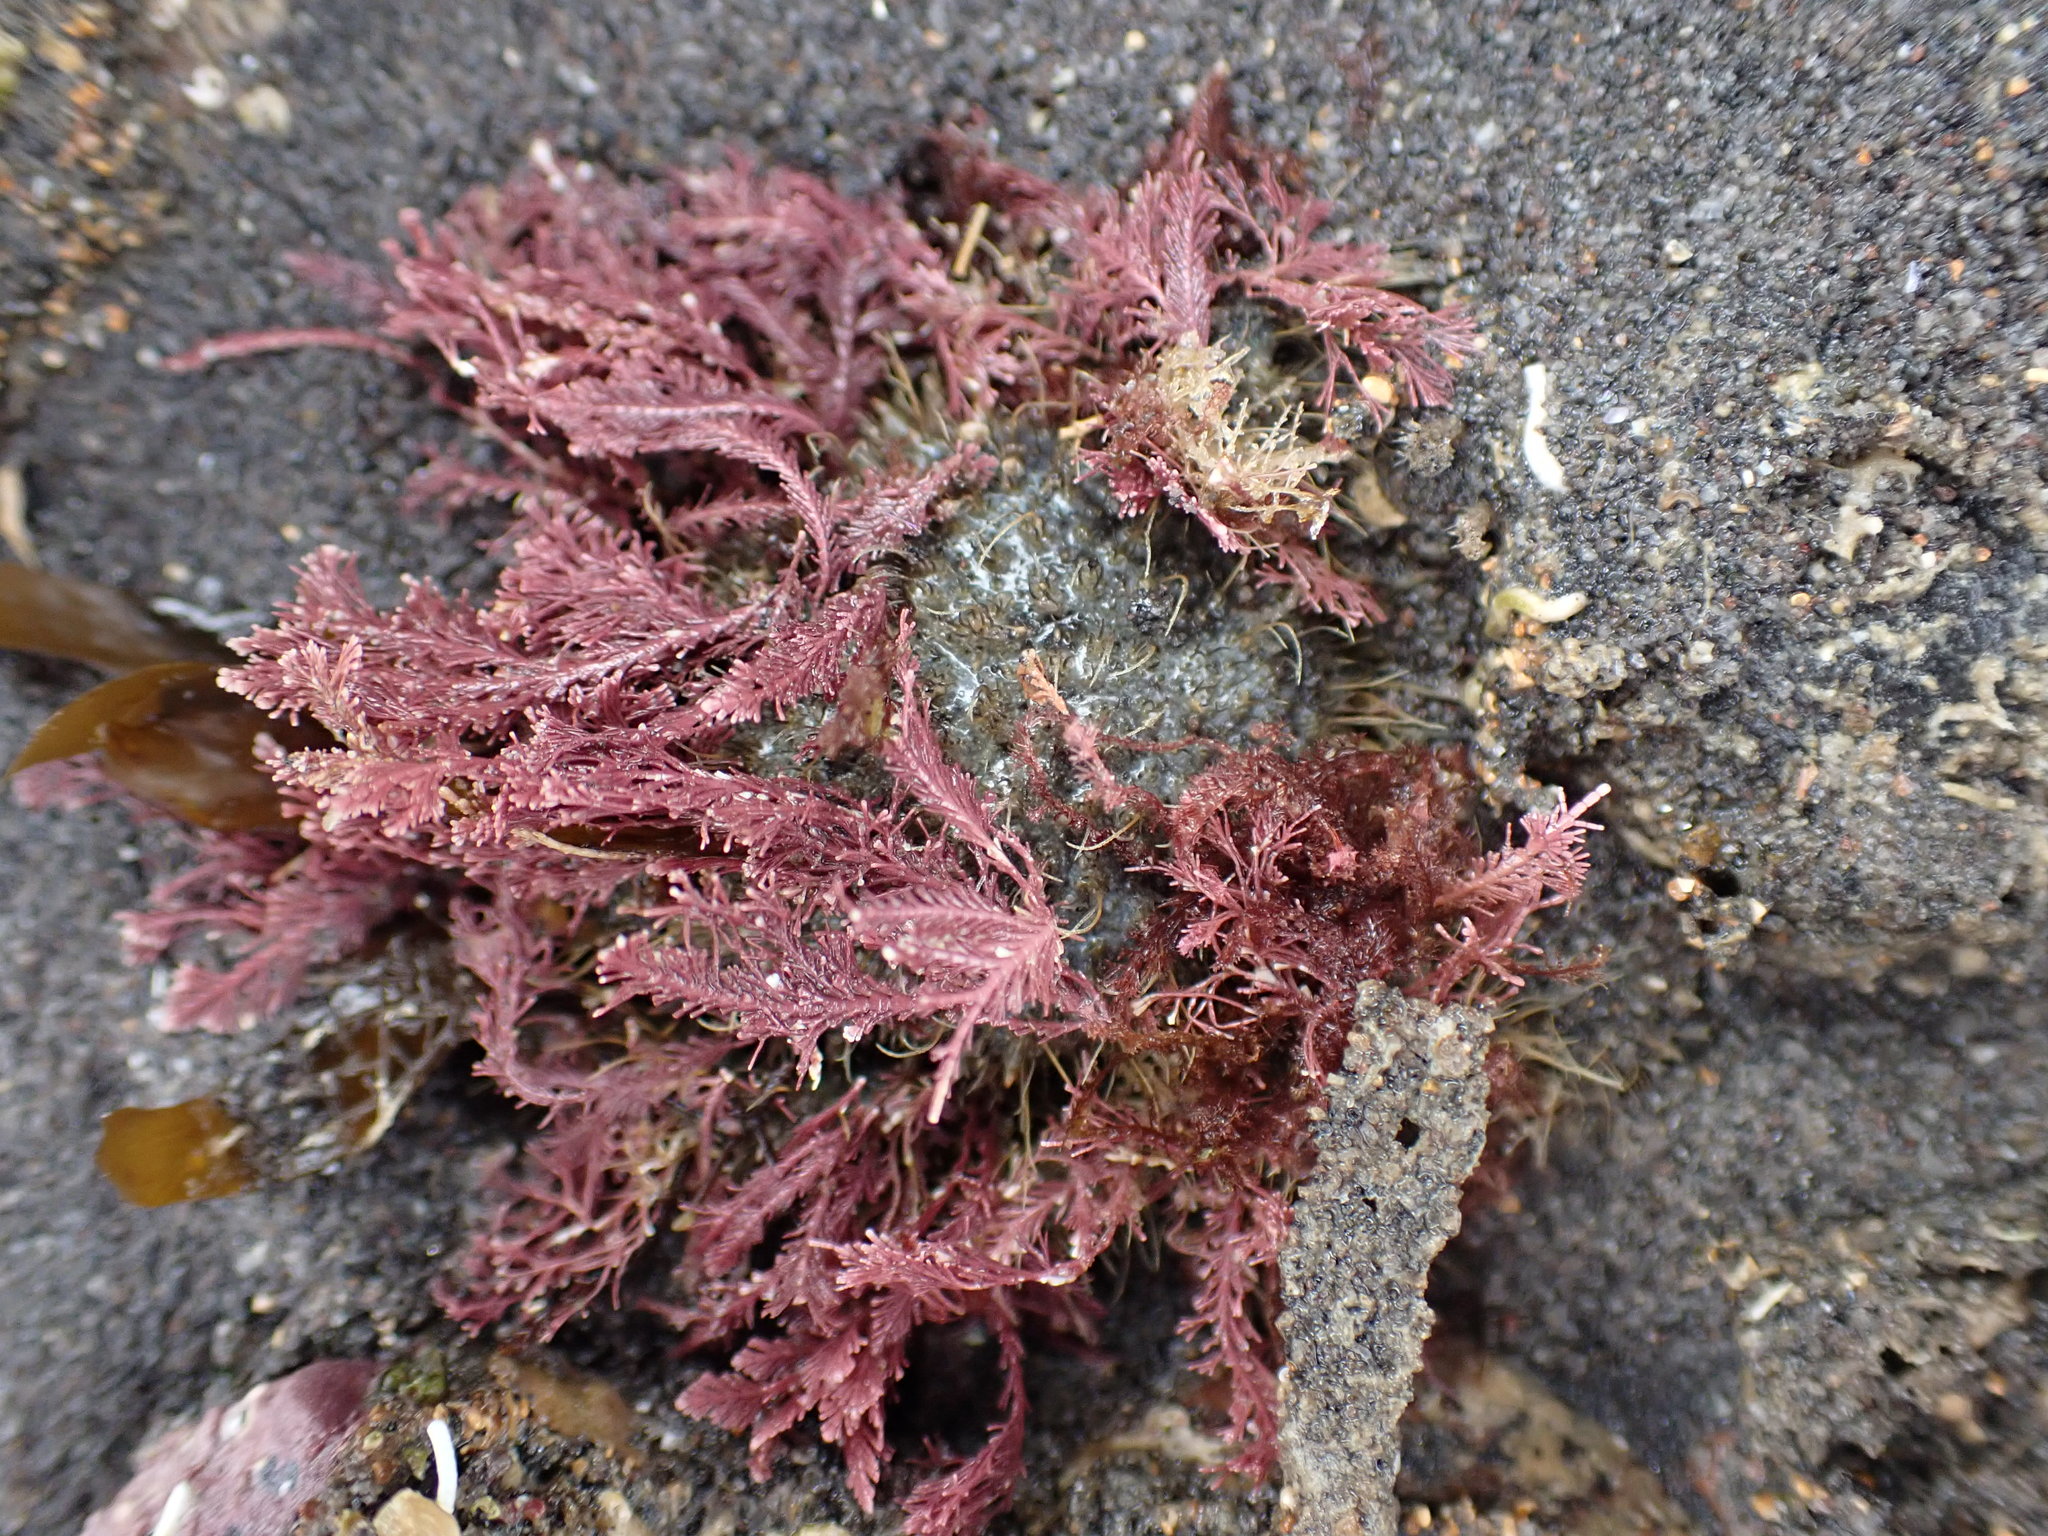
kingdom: Animalia
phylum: Arthropoda
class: Malacostraca
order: Decapoda
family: Majidae
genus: Notomithrax
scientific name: Notomithrax ursus
